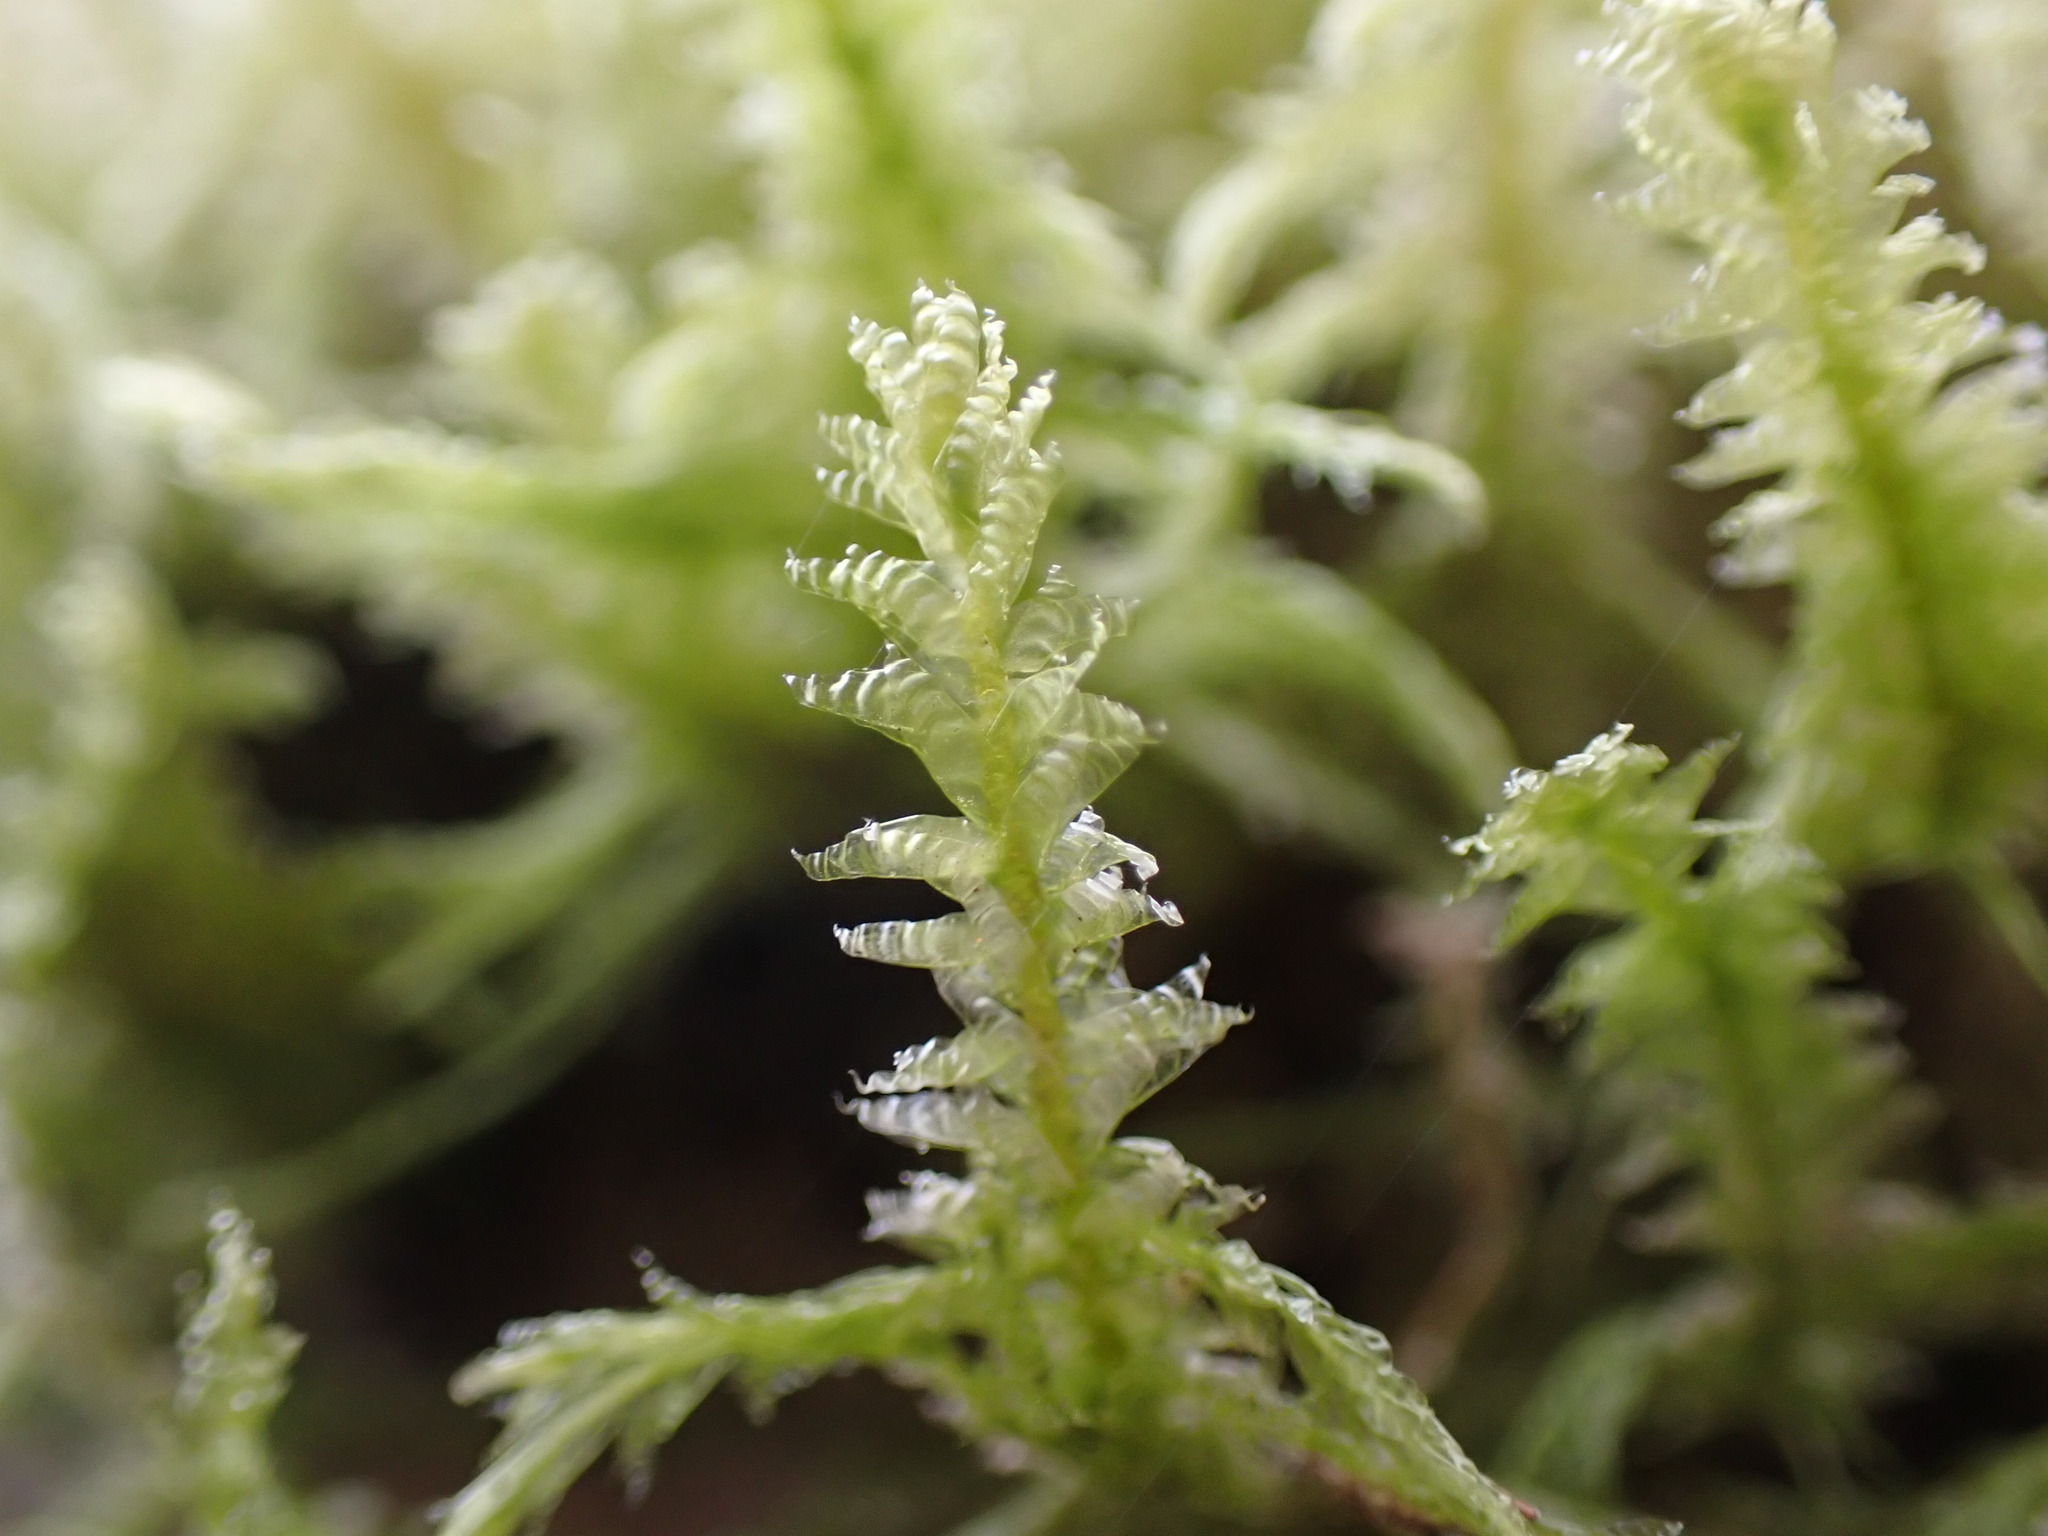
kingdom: Plantae
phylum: Bryophyta
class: Bryopsida
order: Hypnales
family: Neckeraceae
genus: Neckera
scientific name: Neckera douglasii
